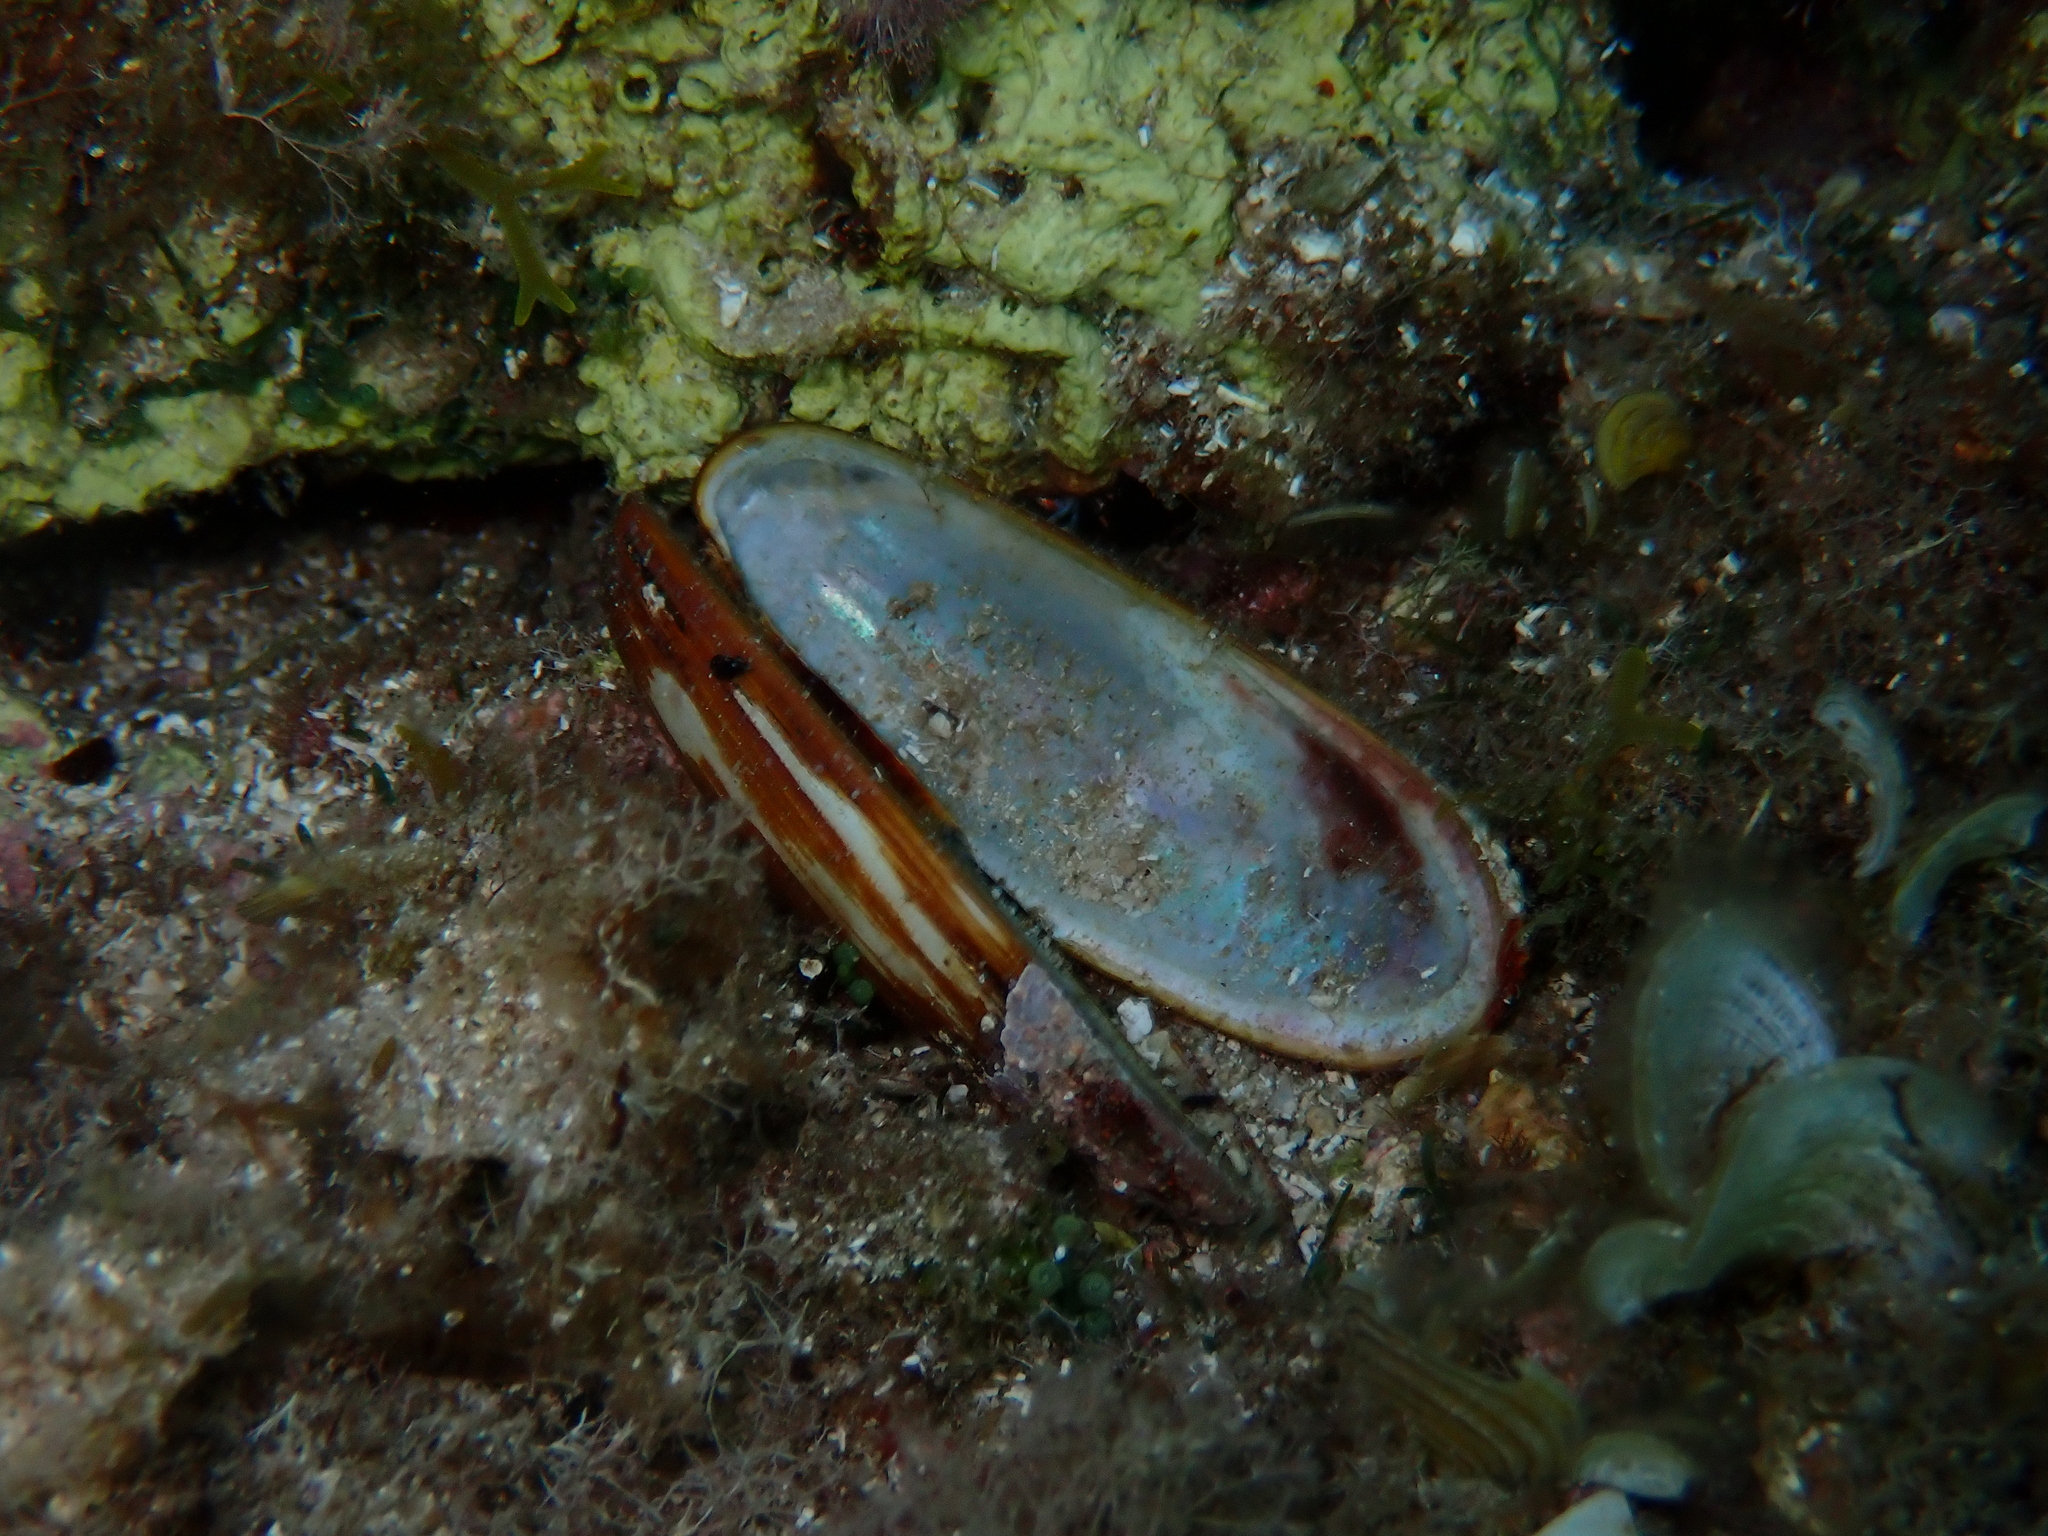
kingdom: Animalia
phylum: Mollusca
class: Bivalvia
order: Mytilida
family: Mytilidae
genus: Lithophaga
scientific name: Lithophaga lithophaga
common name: European date mussel
